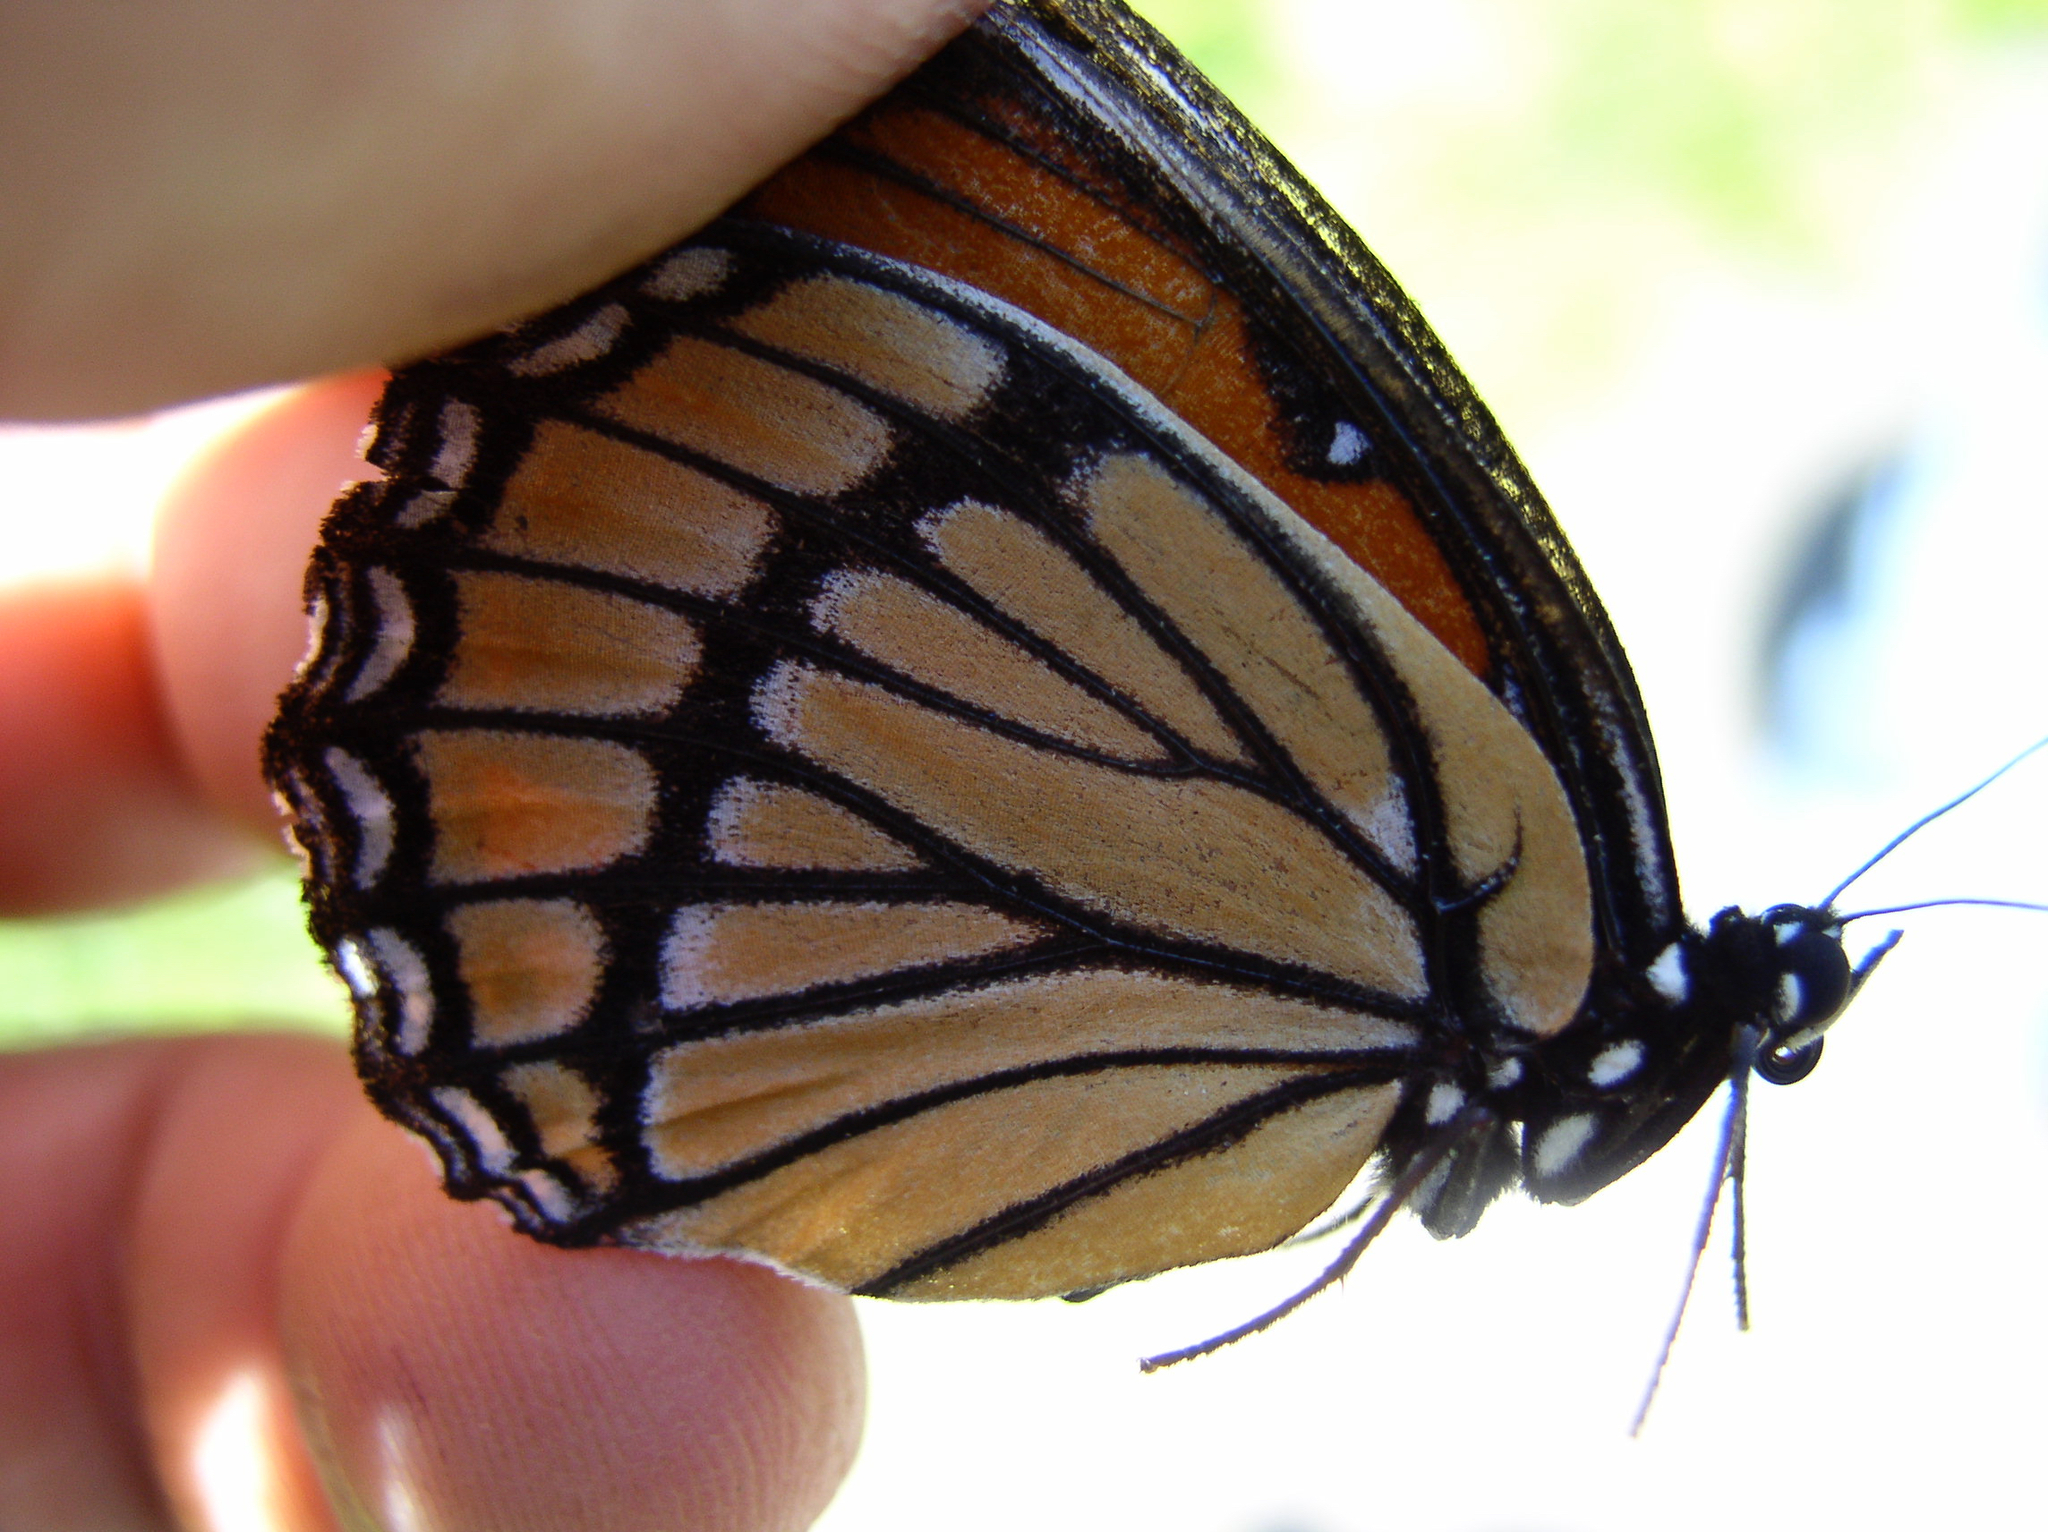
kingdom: Animalia
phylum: Arthropoda
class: Insecta
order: Lepidoptera
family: Nymphalidae
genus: Limenitis
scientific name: Limenitis archippus
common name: Viceroy
